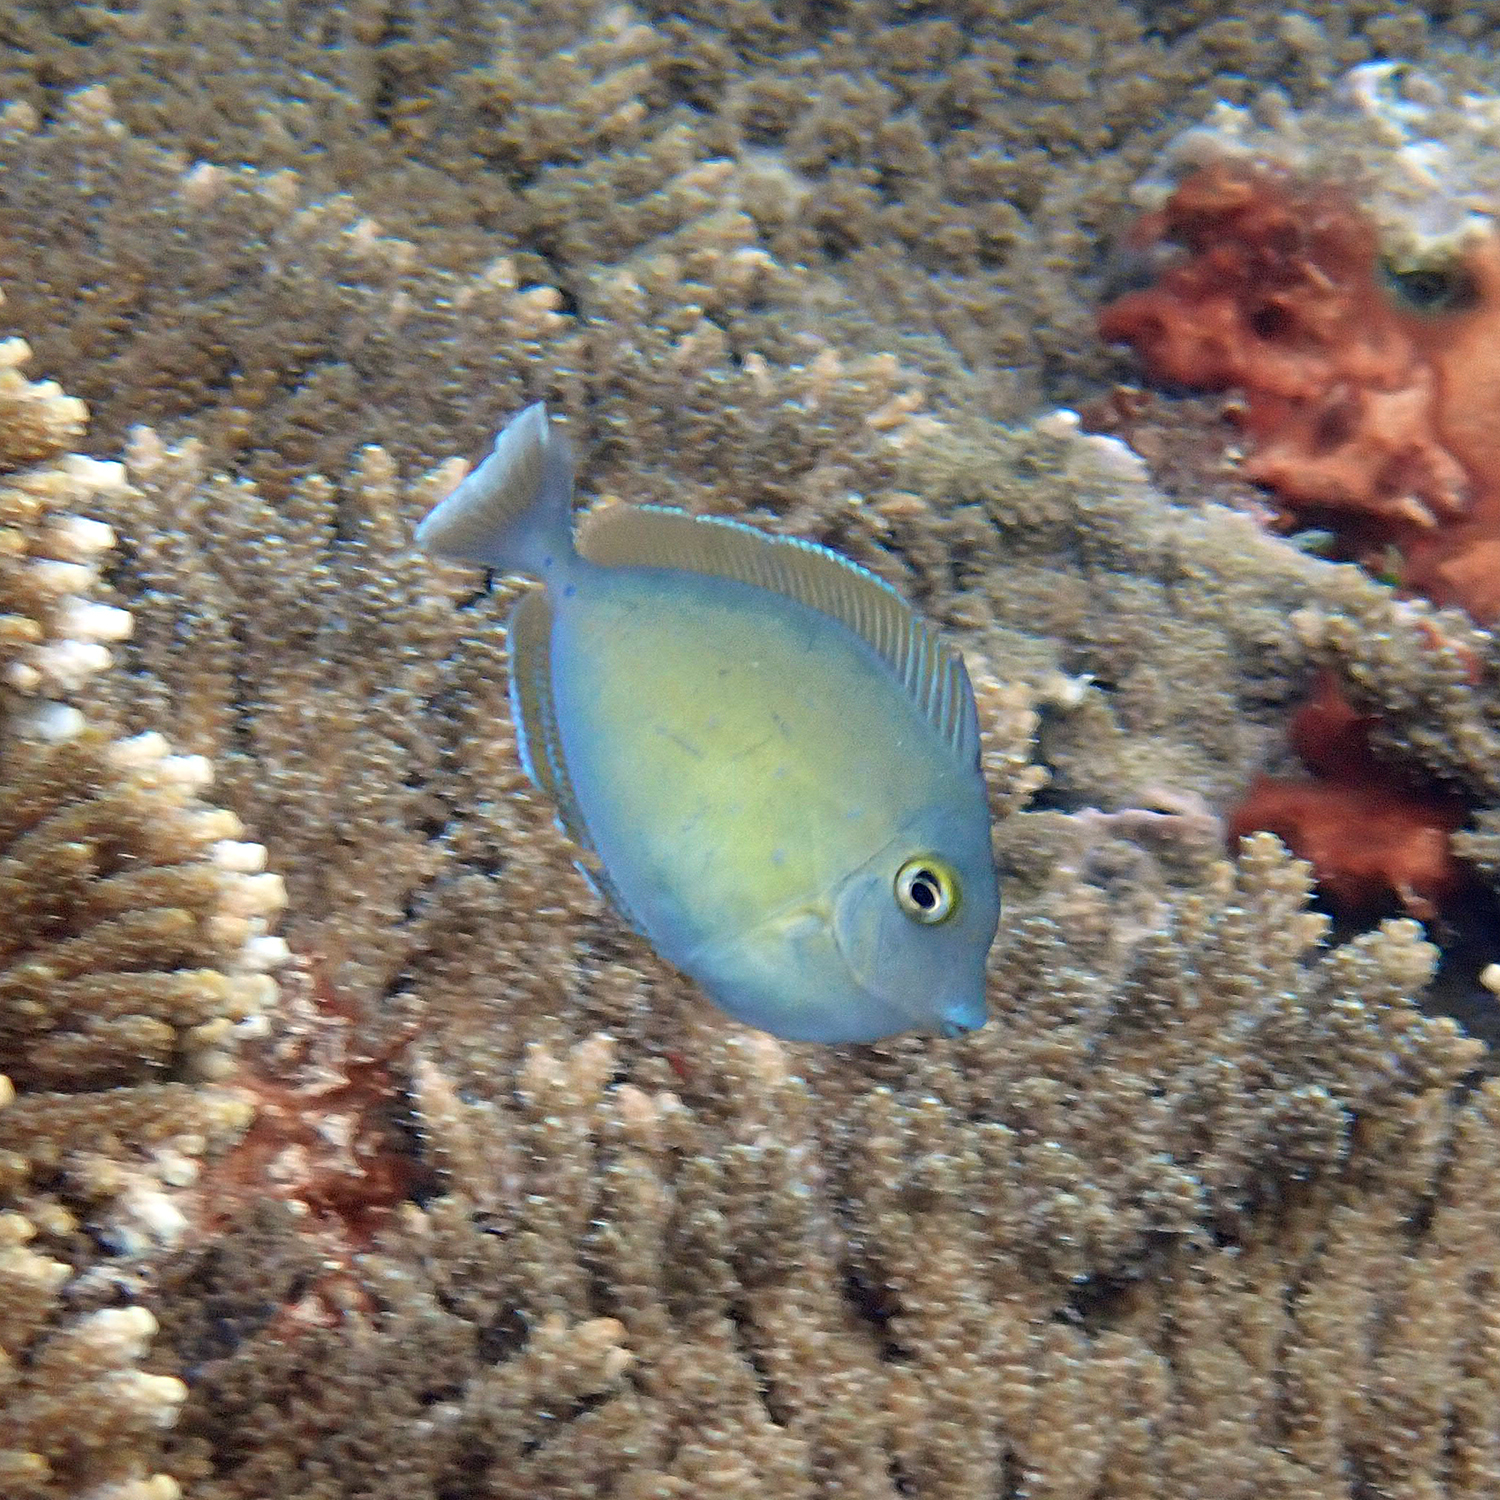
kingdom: Animalia
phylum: Chordata
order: Perciformes
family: Acanthuridae
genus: Naso
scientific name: Naso unicornis
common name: Bluespine unicornfish
